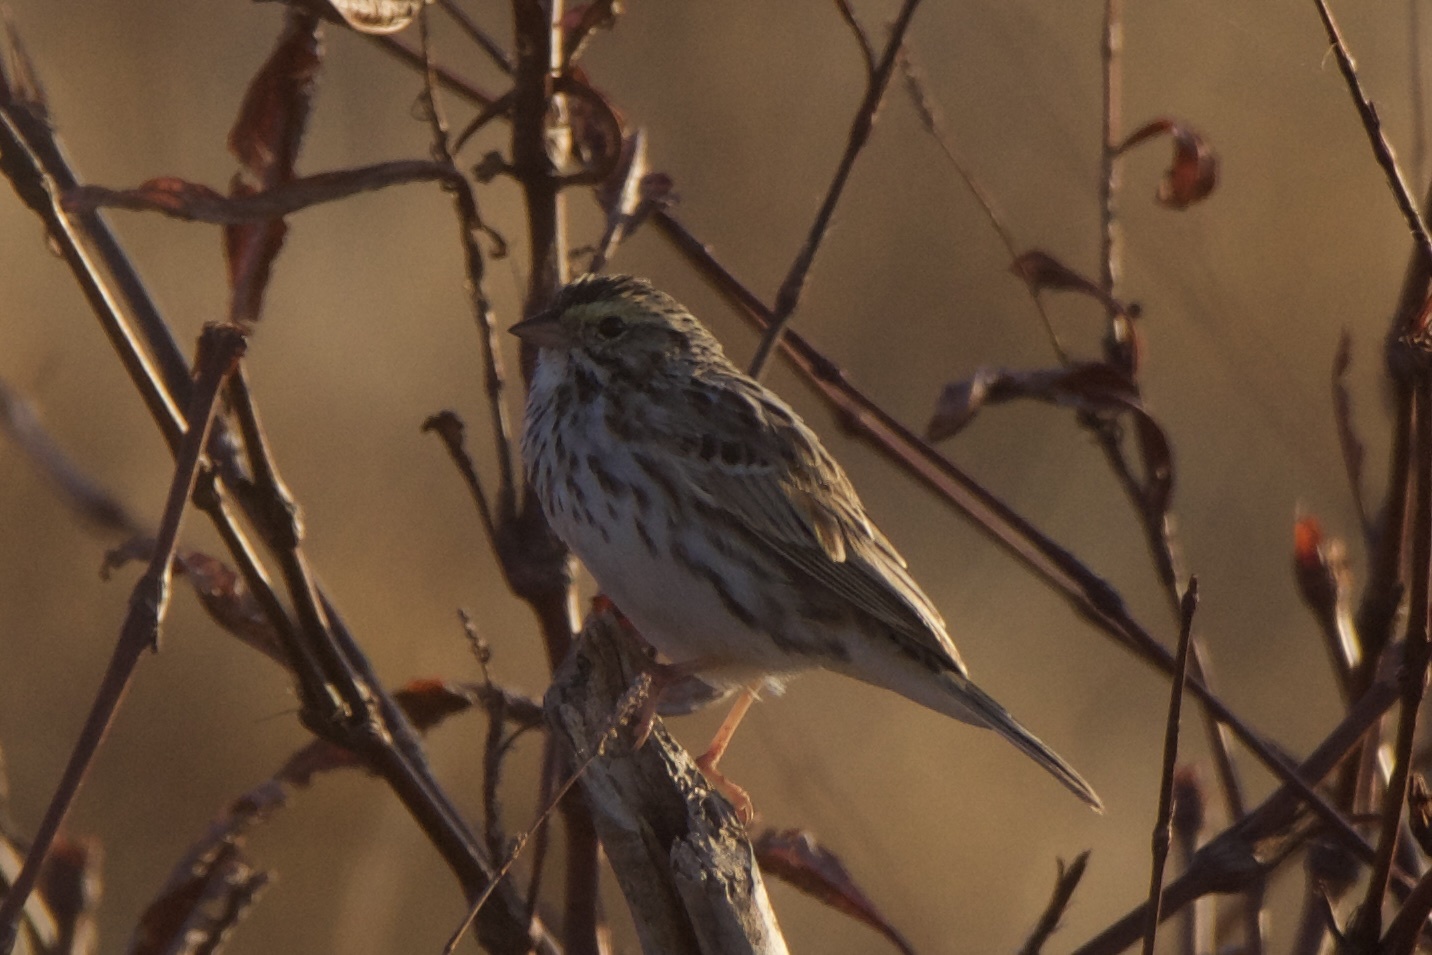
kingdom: Animalia
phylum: Chordata
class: Aves
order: Passeriformes
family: Passerellidae
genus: Passerculus
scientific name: Passerculus sandwichensis
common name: Savannah sparrow
